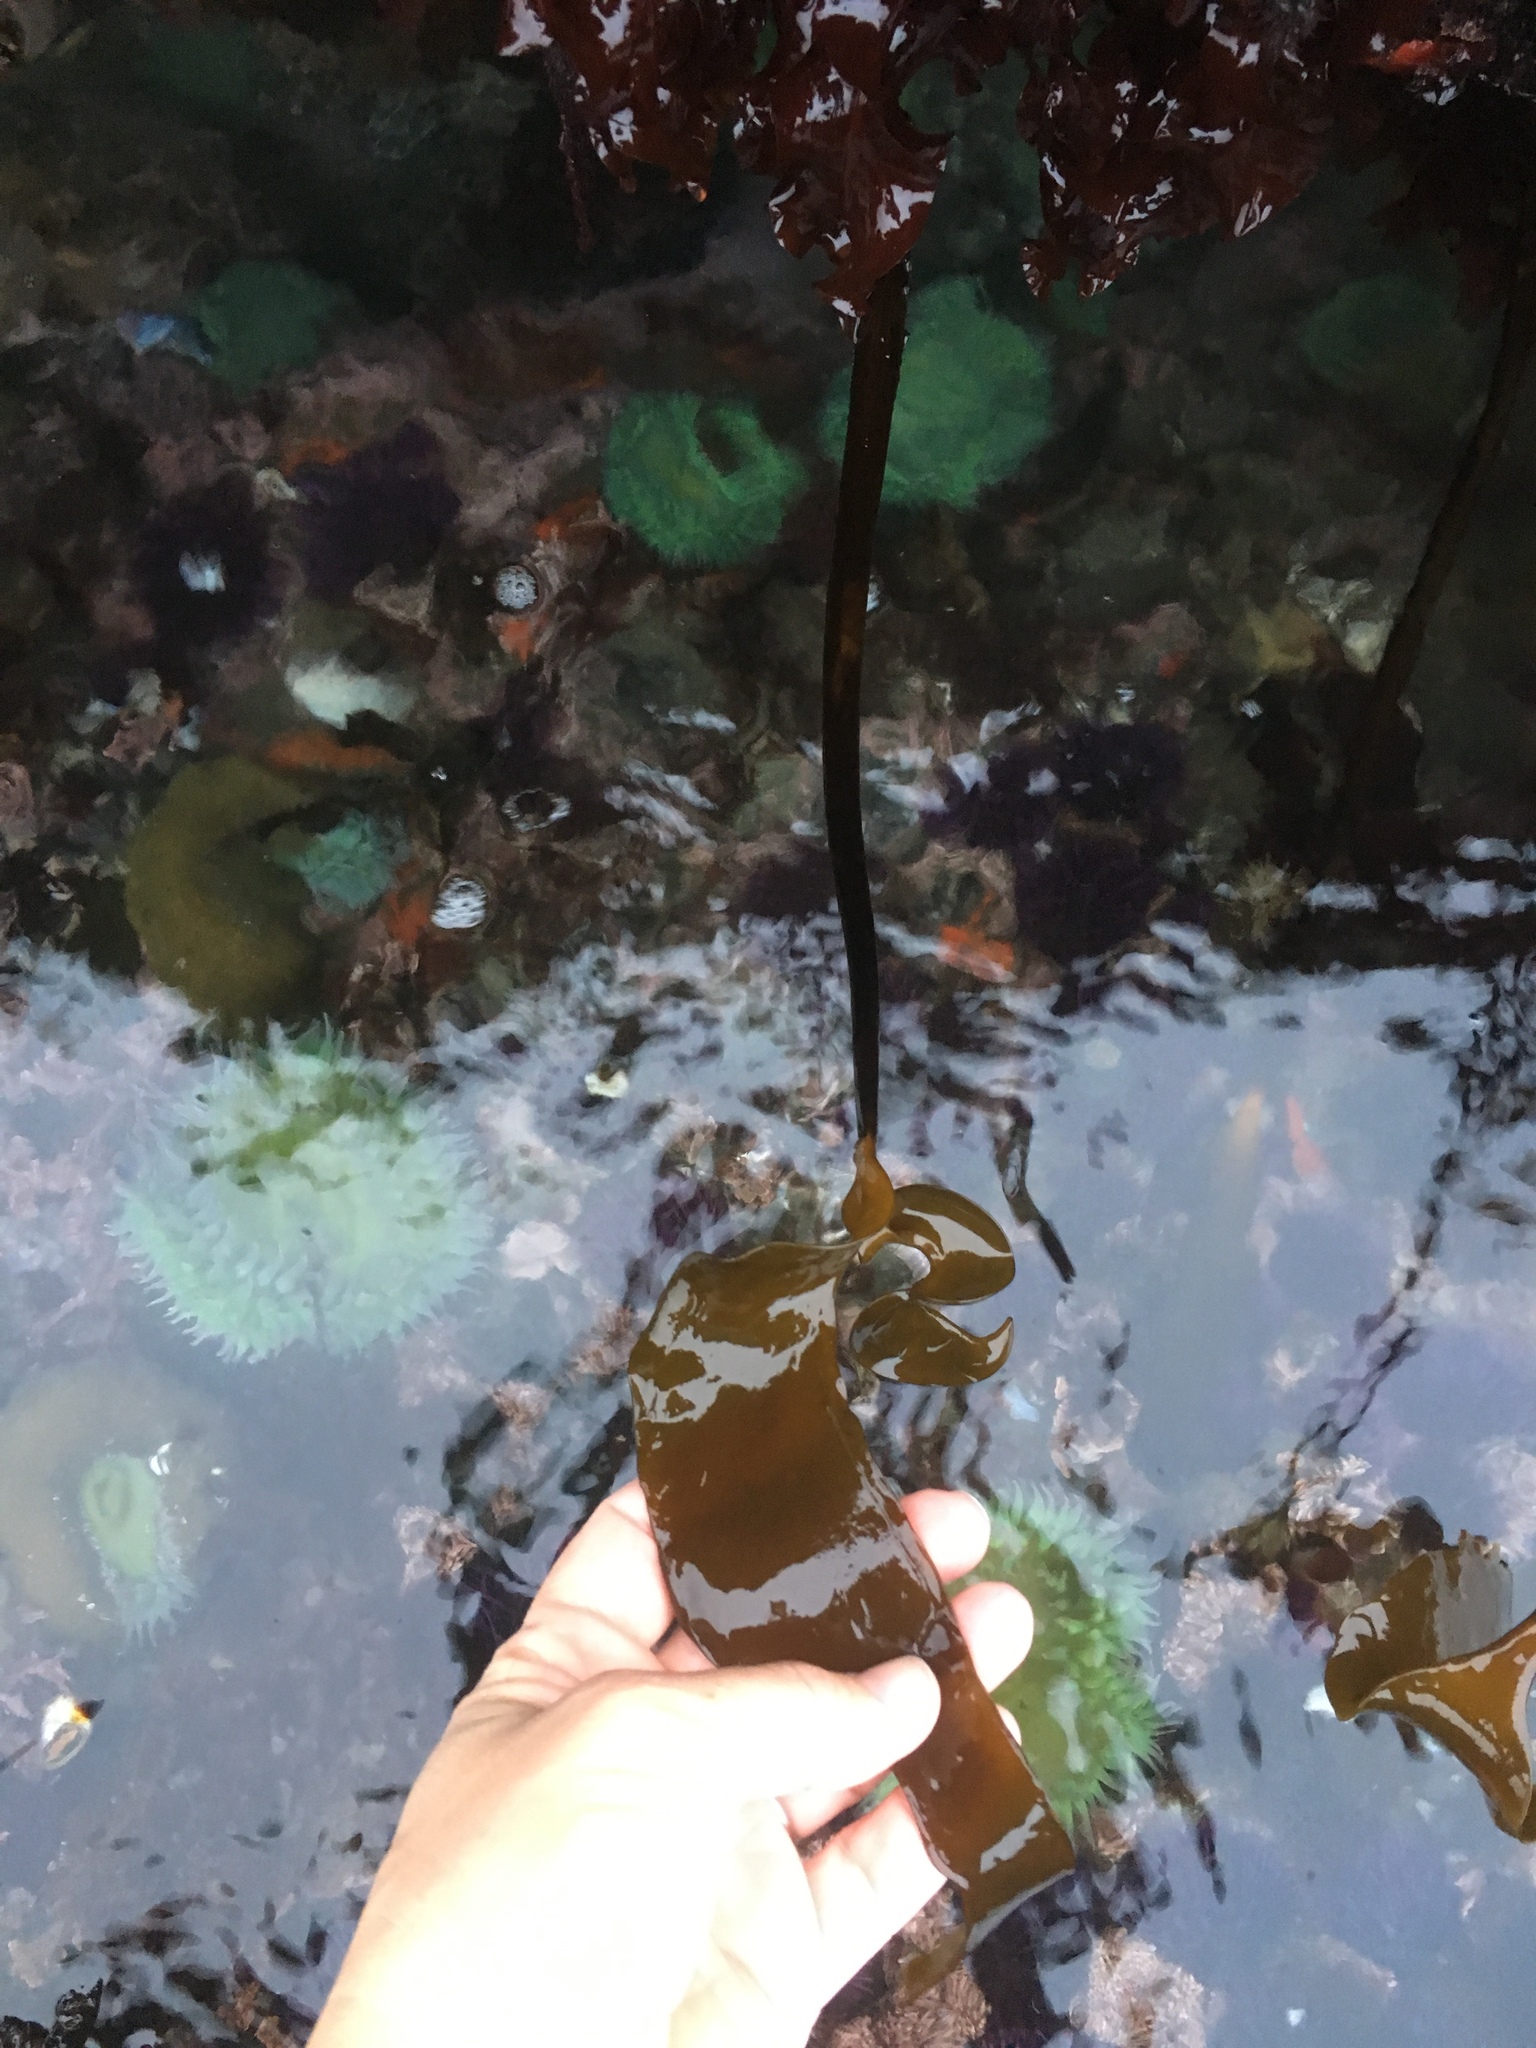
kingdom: Chromista
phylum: Ochrophyta
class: Phaeophyceae
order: Laminariales
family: Laminariaceae
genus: Laminaria
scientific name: Laminaria setchellii
